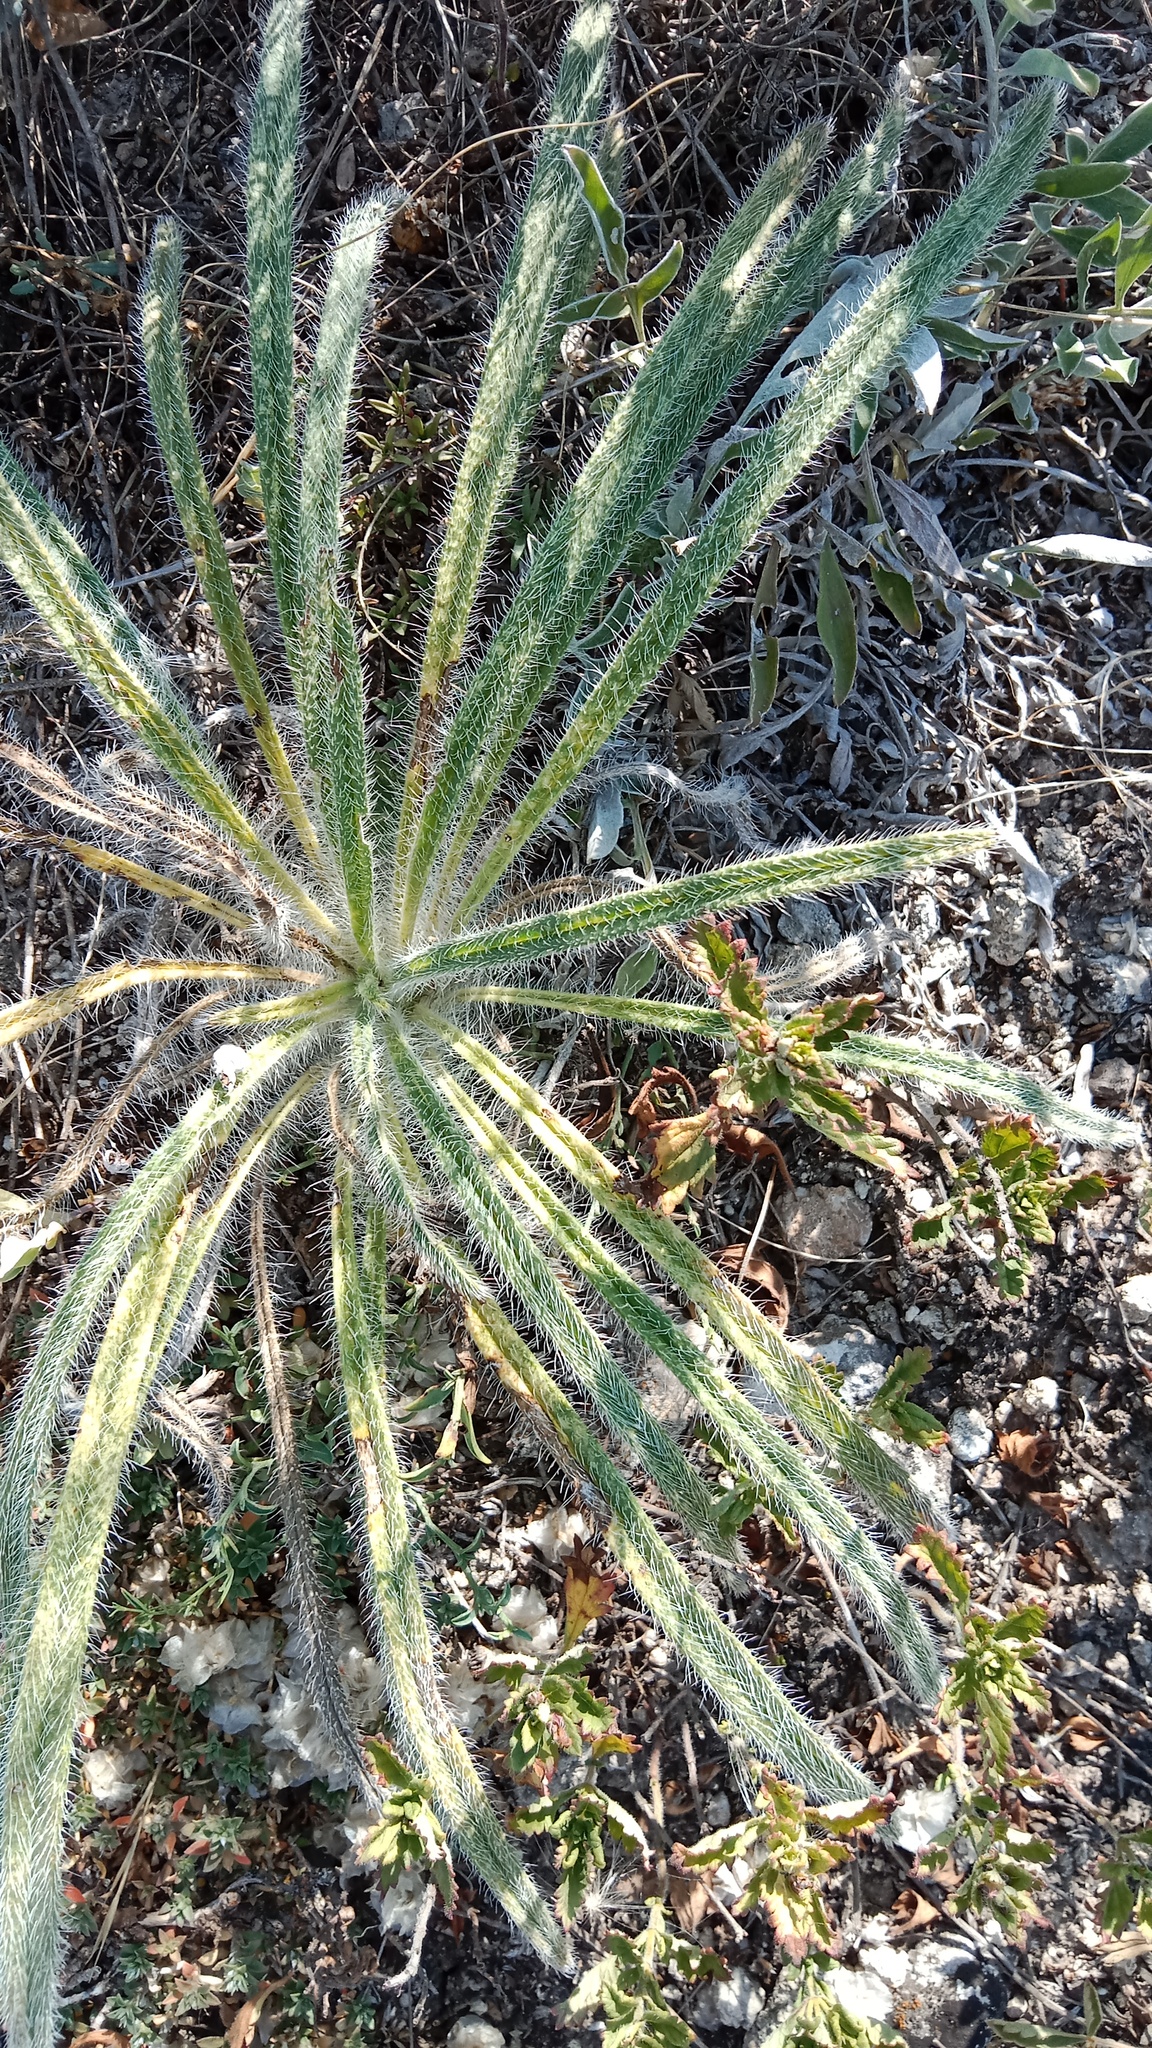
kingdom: Plantae
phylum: Tracheophyta
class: Magnoliopsida
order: Boraginales
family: Boraginaceae
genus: Onosma
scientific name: Onosma visianii
